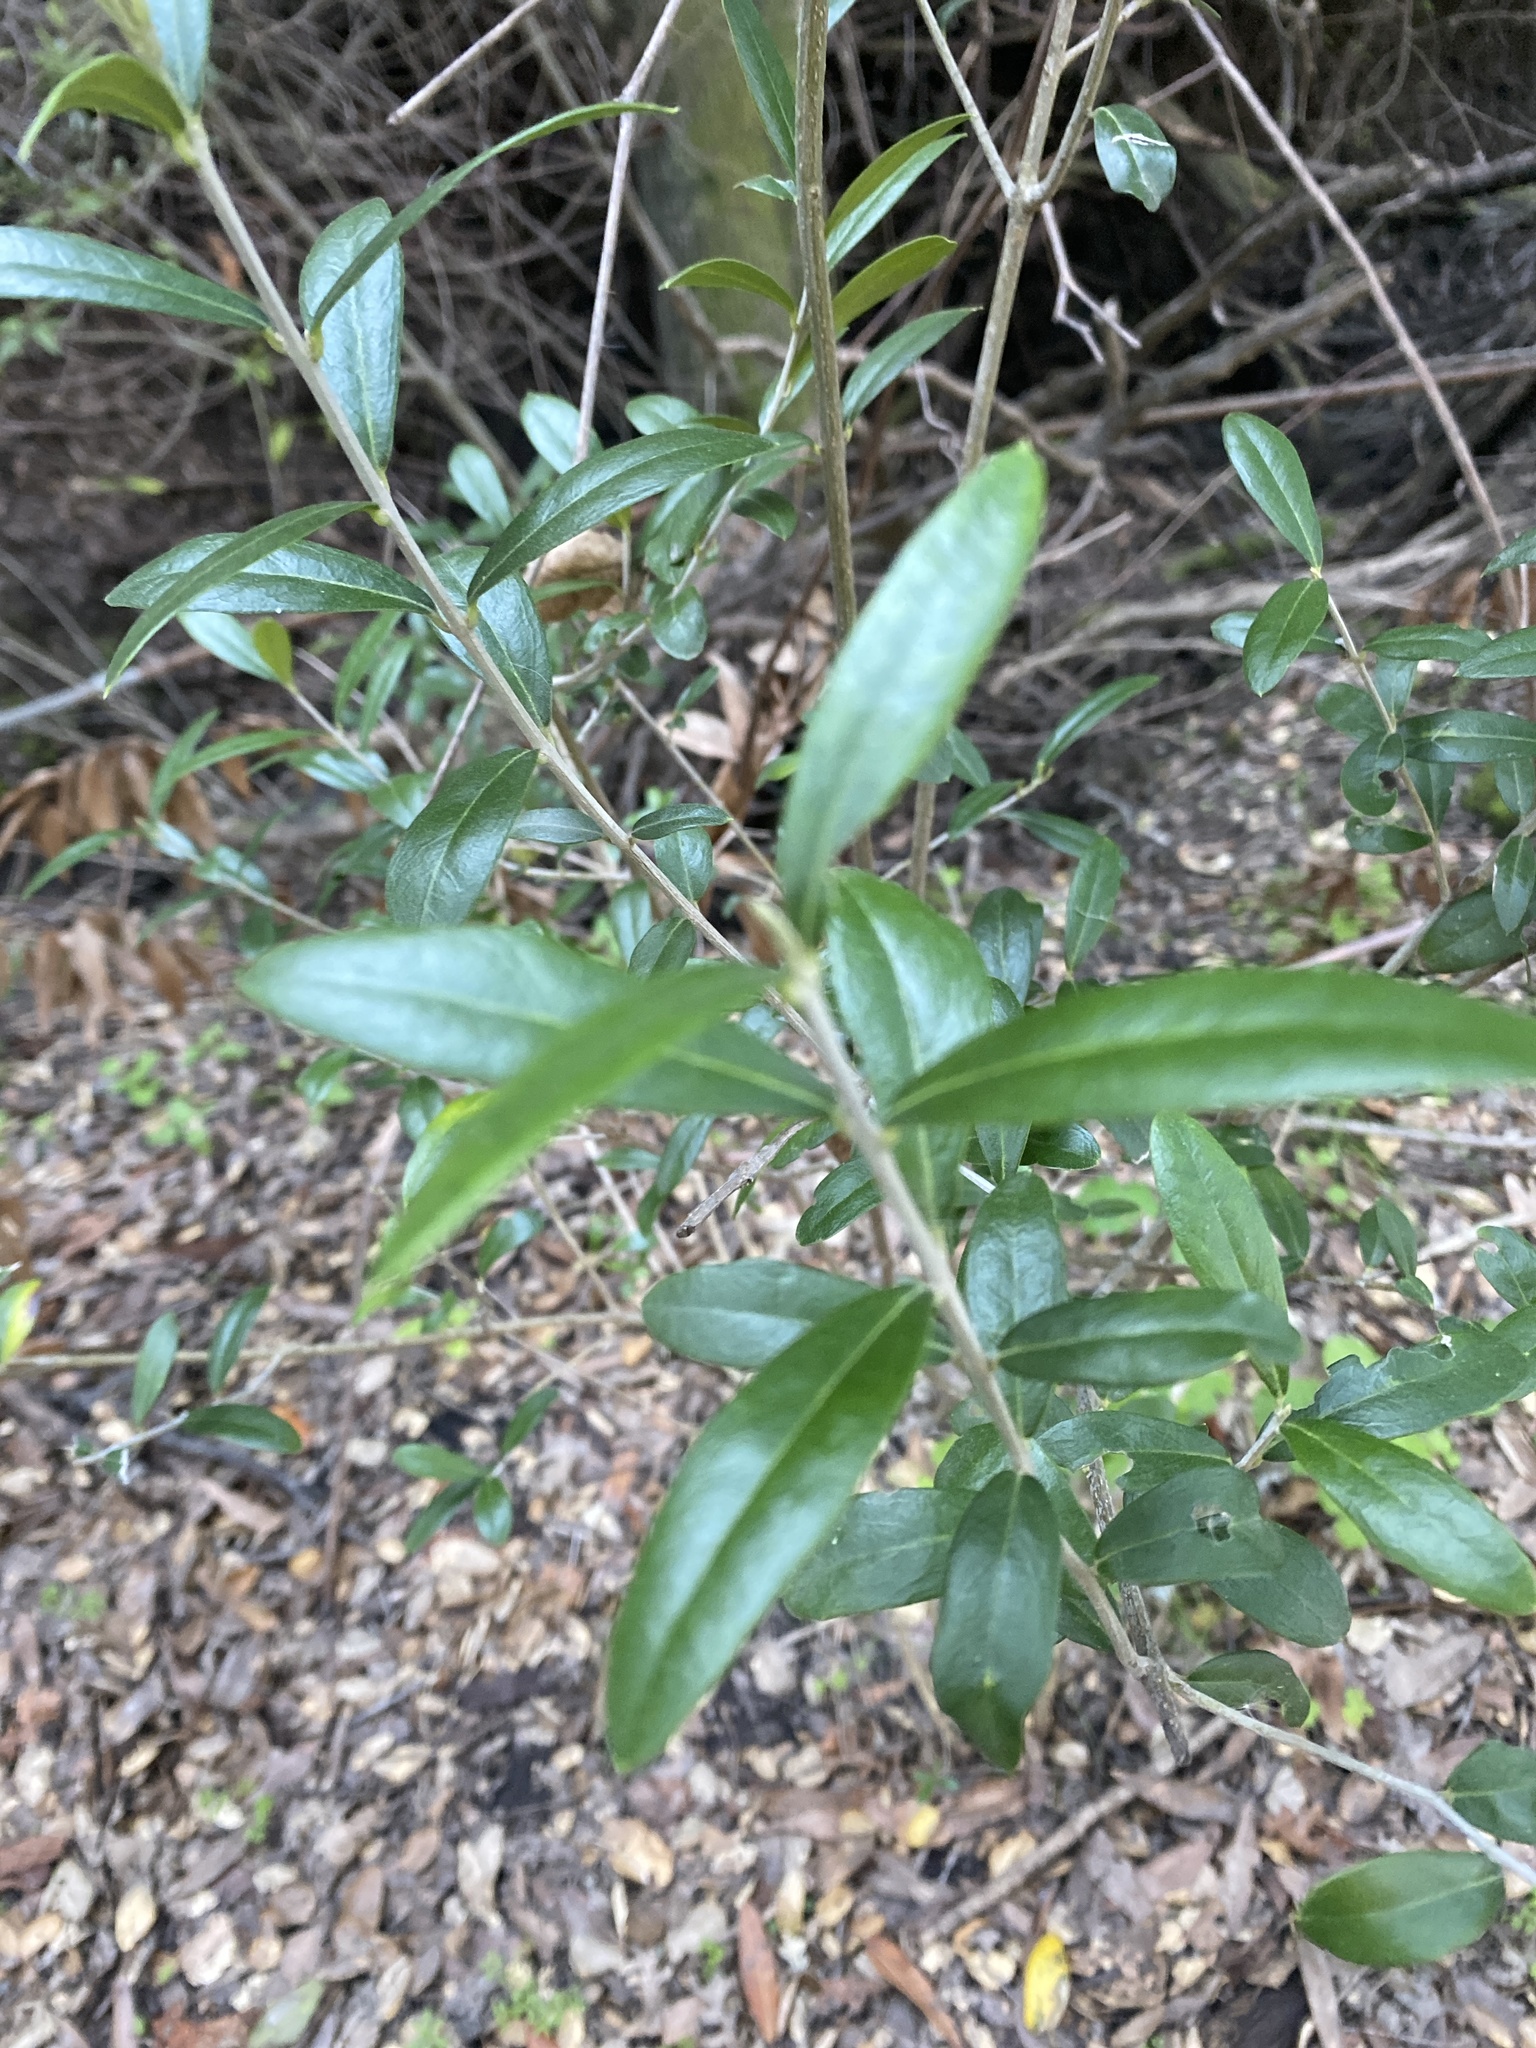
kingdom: Plantae
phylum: Tracheophyta
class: Magnoliopsida
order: Lamiales
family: Oleaceae
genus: Olea
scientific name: Olea europaea
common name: Olive
